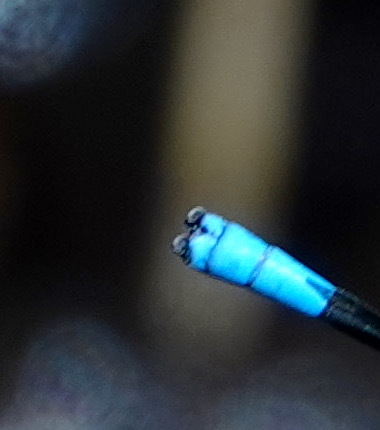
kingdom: Animalia
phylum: Arthropoda
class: Insecta
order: Odonata
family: Coenagrionidae
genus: Argia
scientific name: Argia vivida
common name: Vivid dancer
